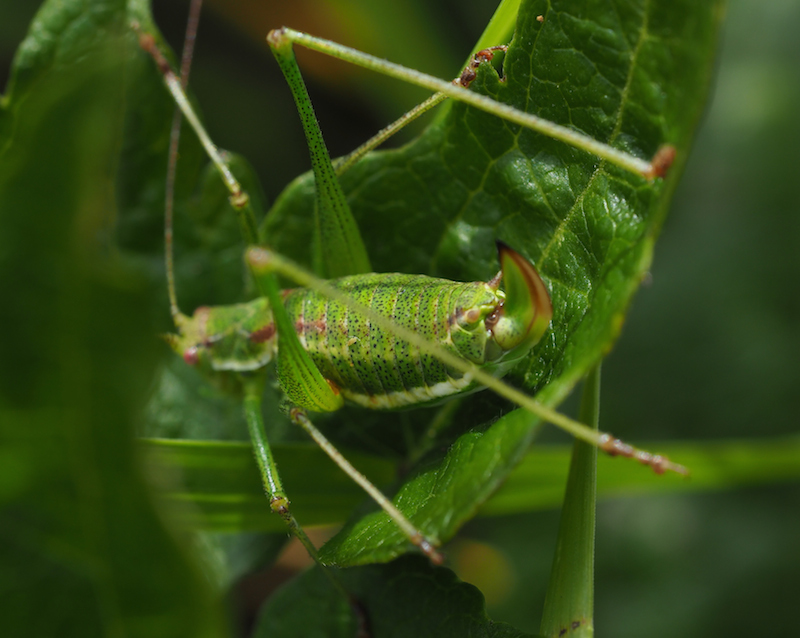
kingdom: Animalia
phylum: Arthropoda
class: Insecta
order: Orthoptera
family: Tettigoniidae
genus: Leptophyes
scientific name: Leptophyes albovittata
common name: Striped bush-cricket
